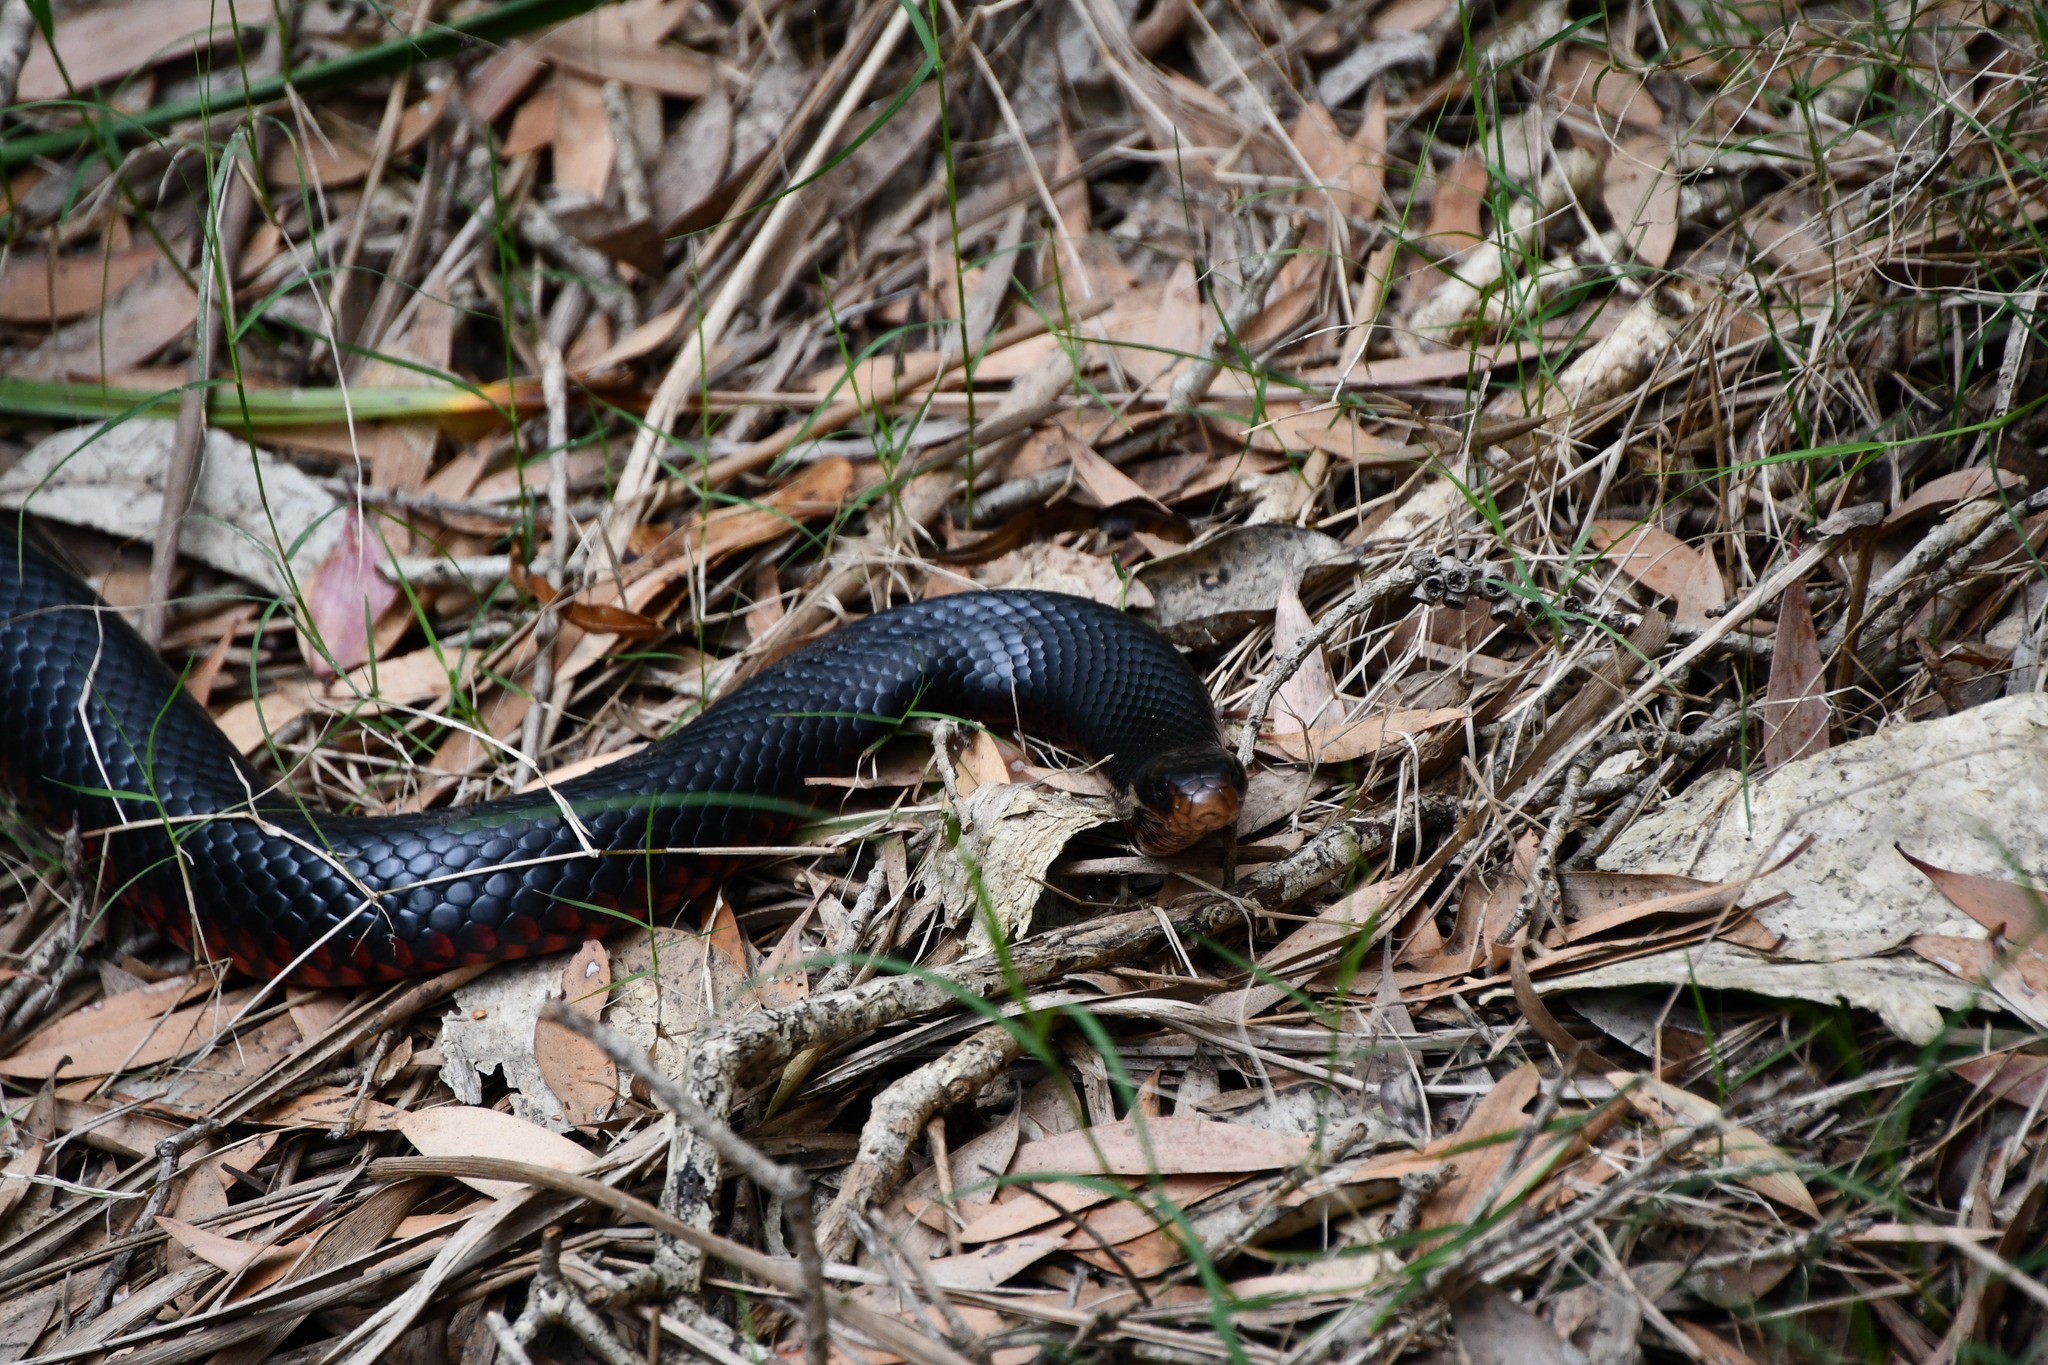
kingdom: Animalia
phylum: Chordata
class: Squamata
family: Elapidae
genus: Pseudechis
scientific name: Pseudechis porphyriacus
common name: Australian black snake
